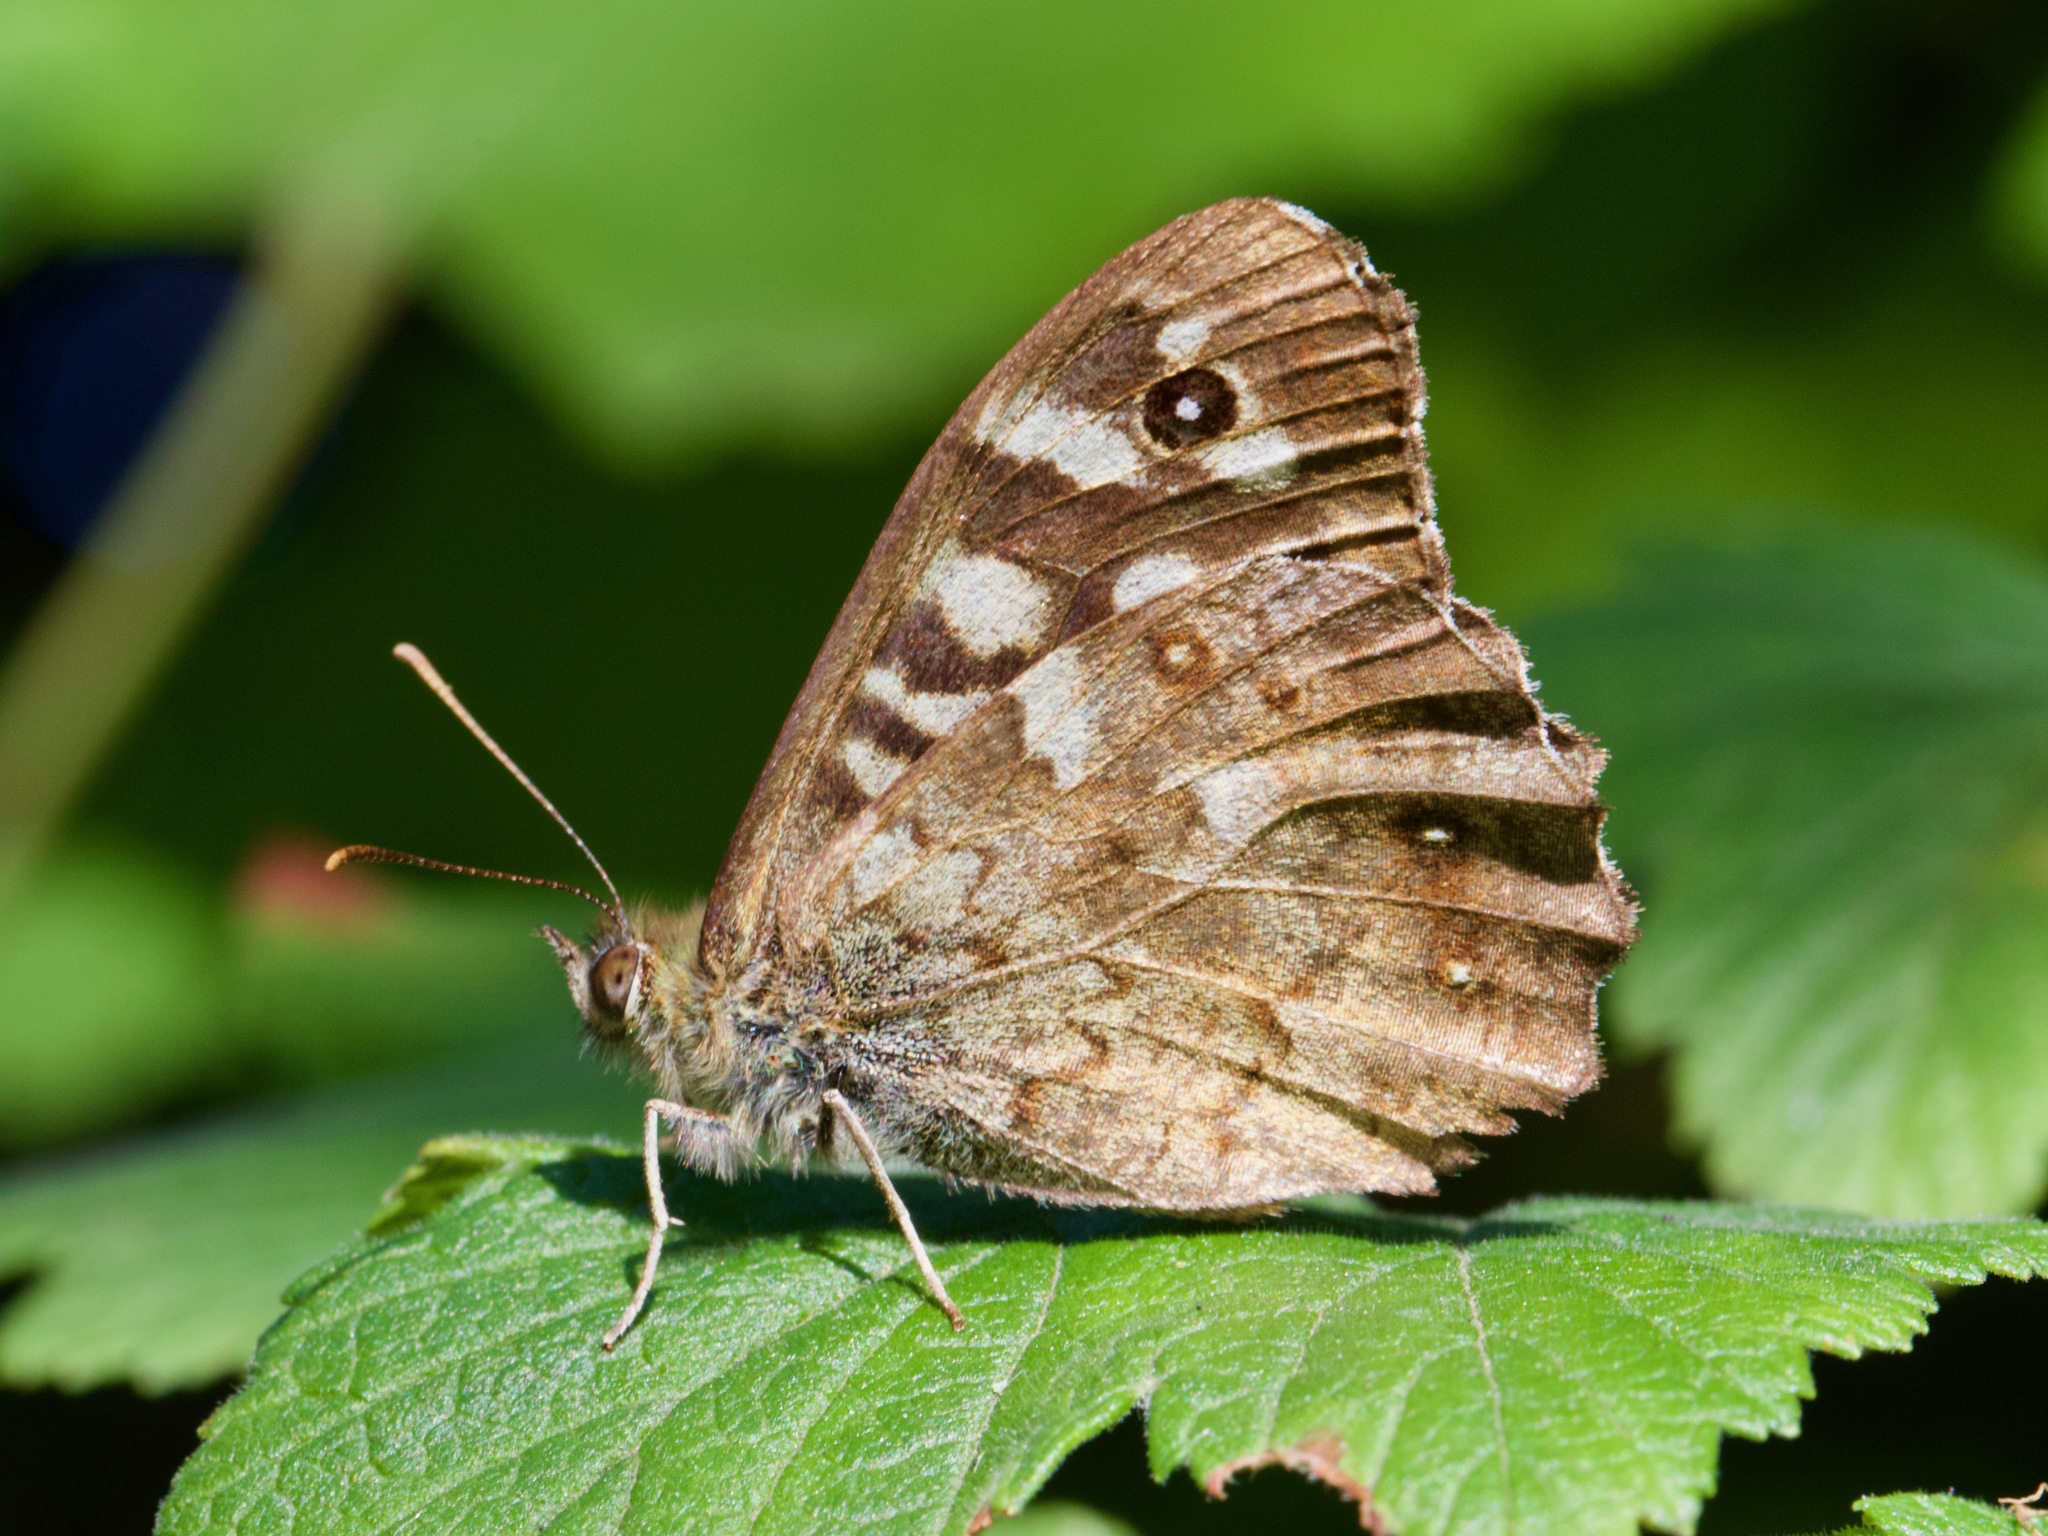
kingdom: Animalia
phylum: Arthropoda
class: Insecta
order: Lepidoptera
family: Nymphalidae
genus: Pararge
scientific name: Pararge aegeria
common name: Speckled wood
